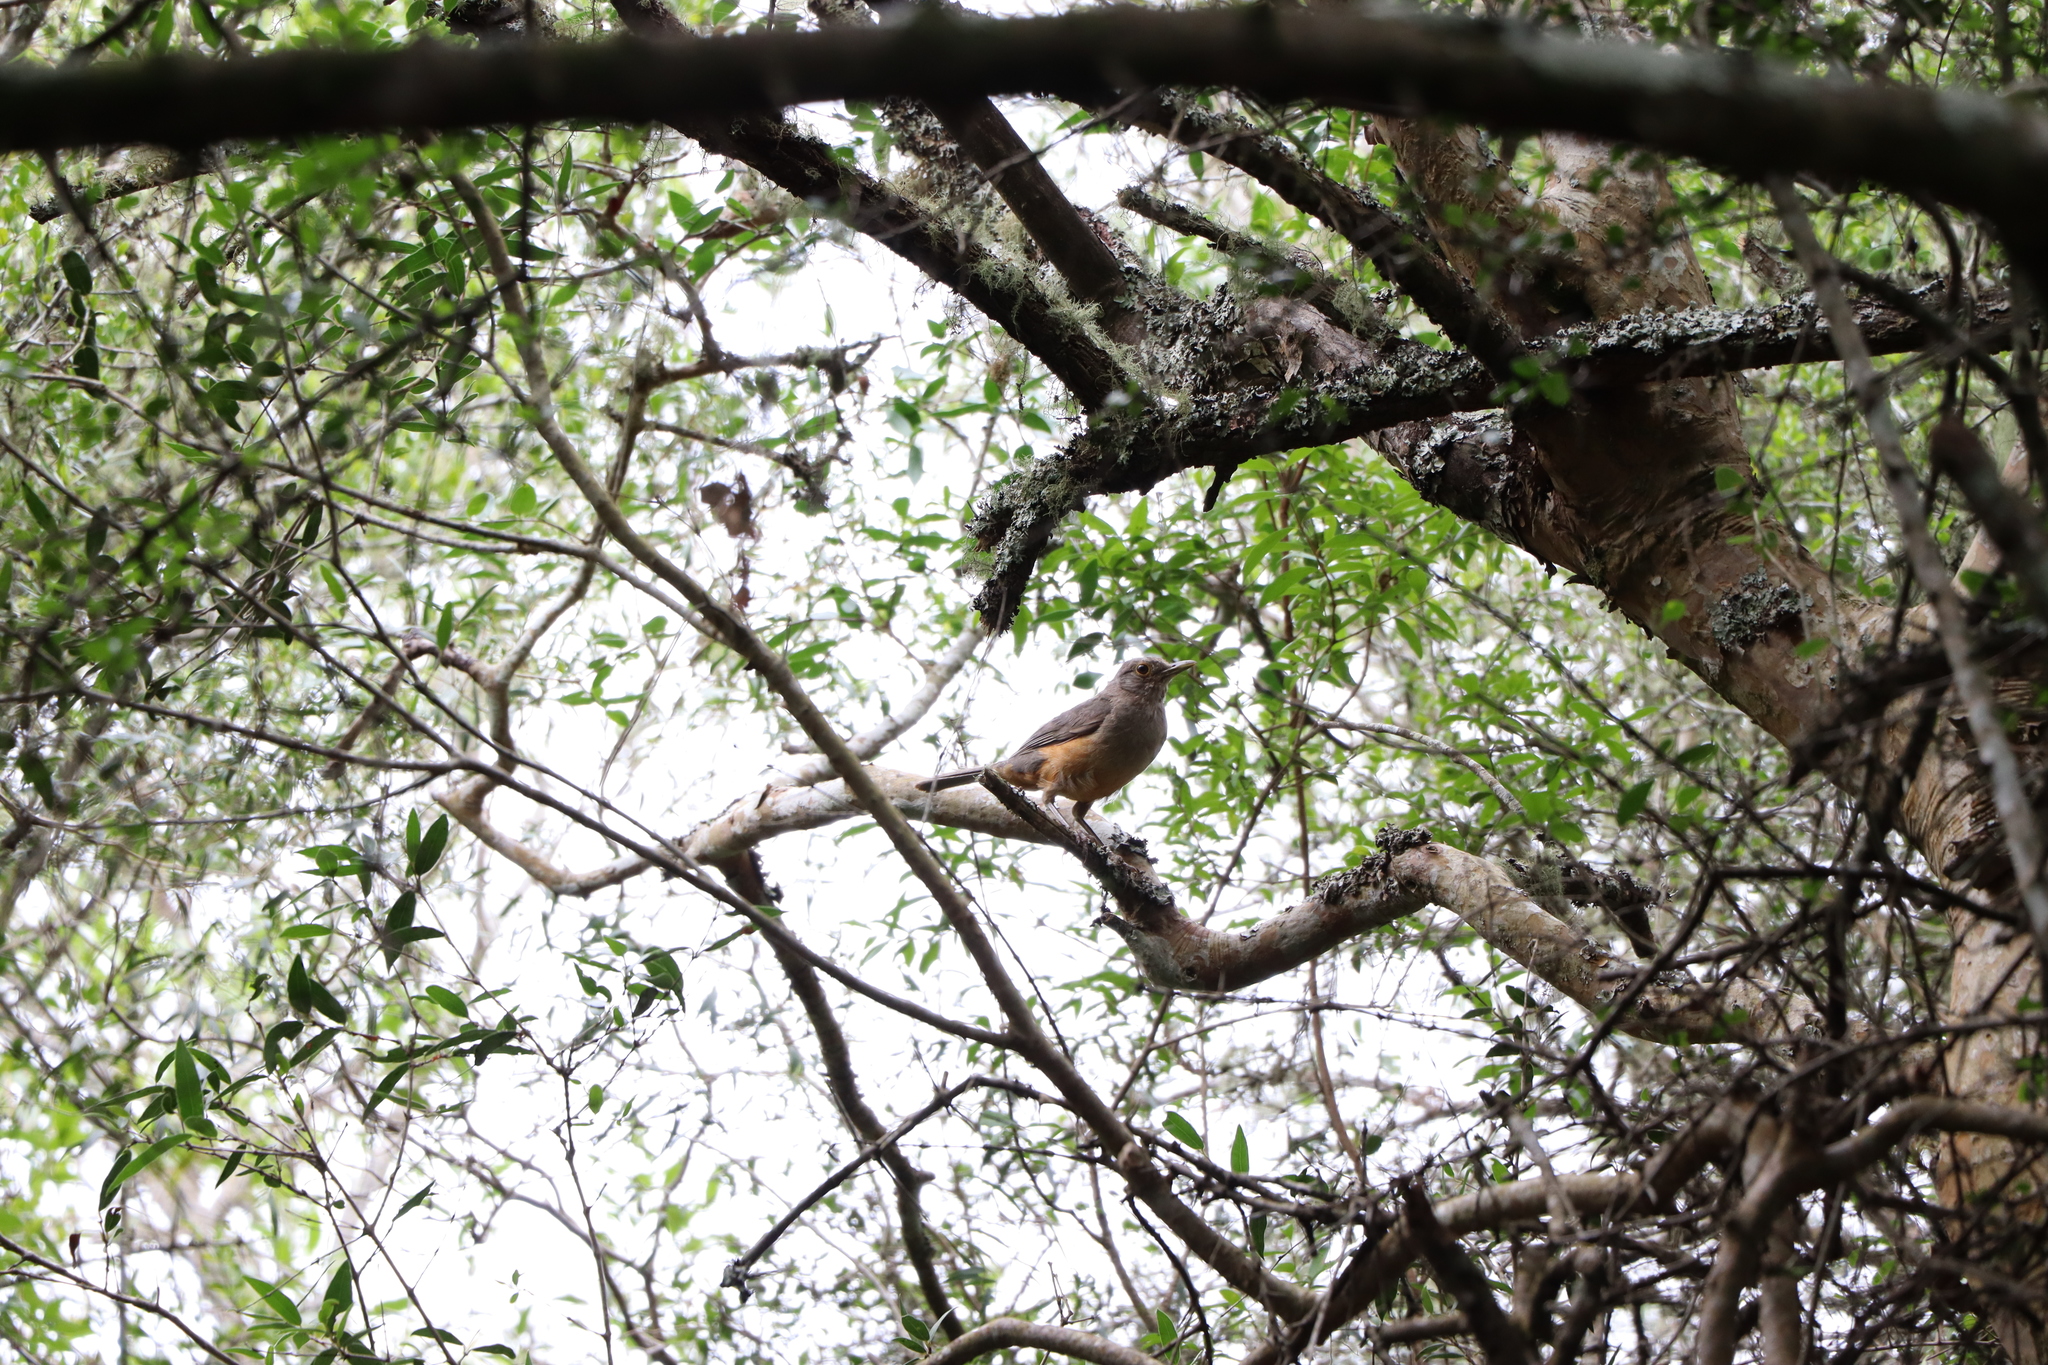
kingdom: Animalia
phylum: Chordata
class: Aves
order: Passeriformes
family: Turdidae
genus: Turdus
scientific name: Turdus rufiventris
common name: Rufous-bellied thrush
